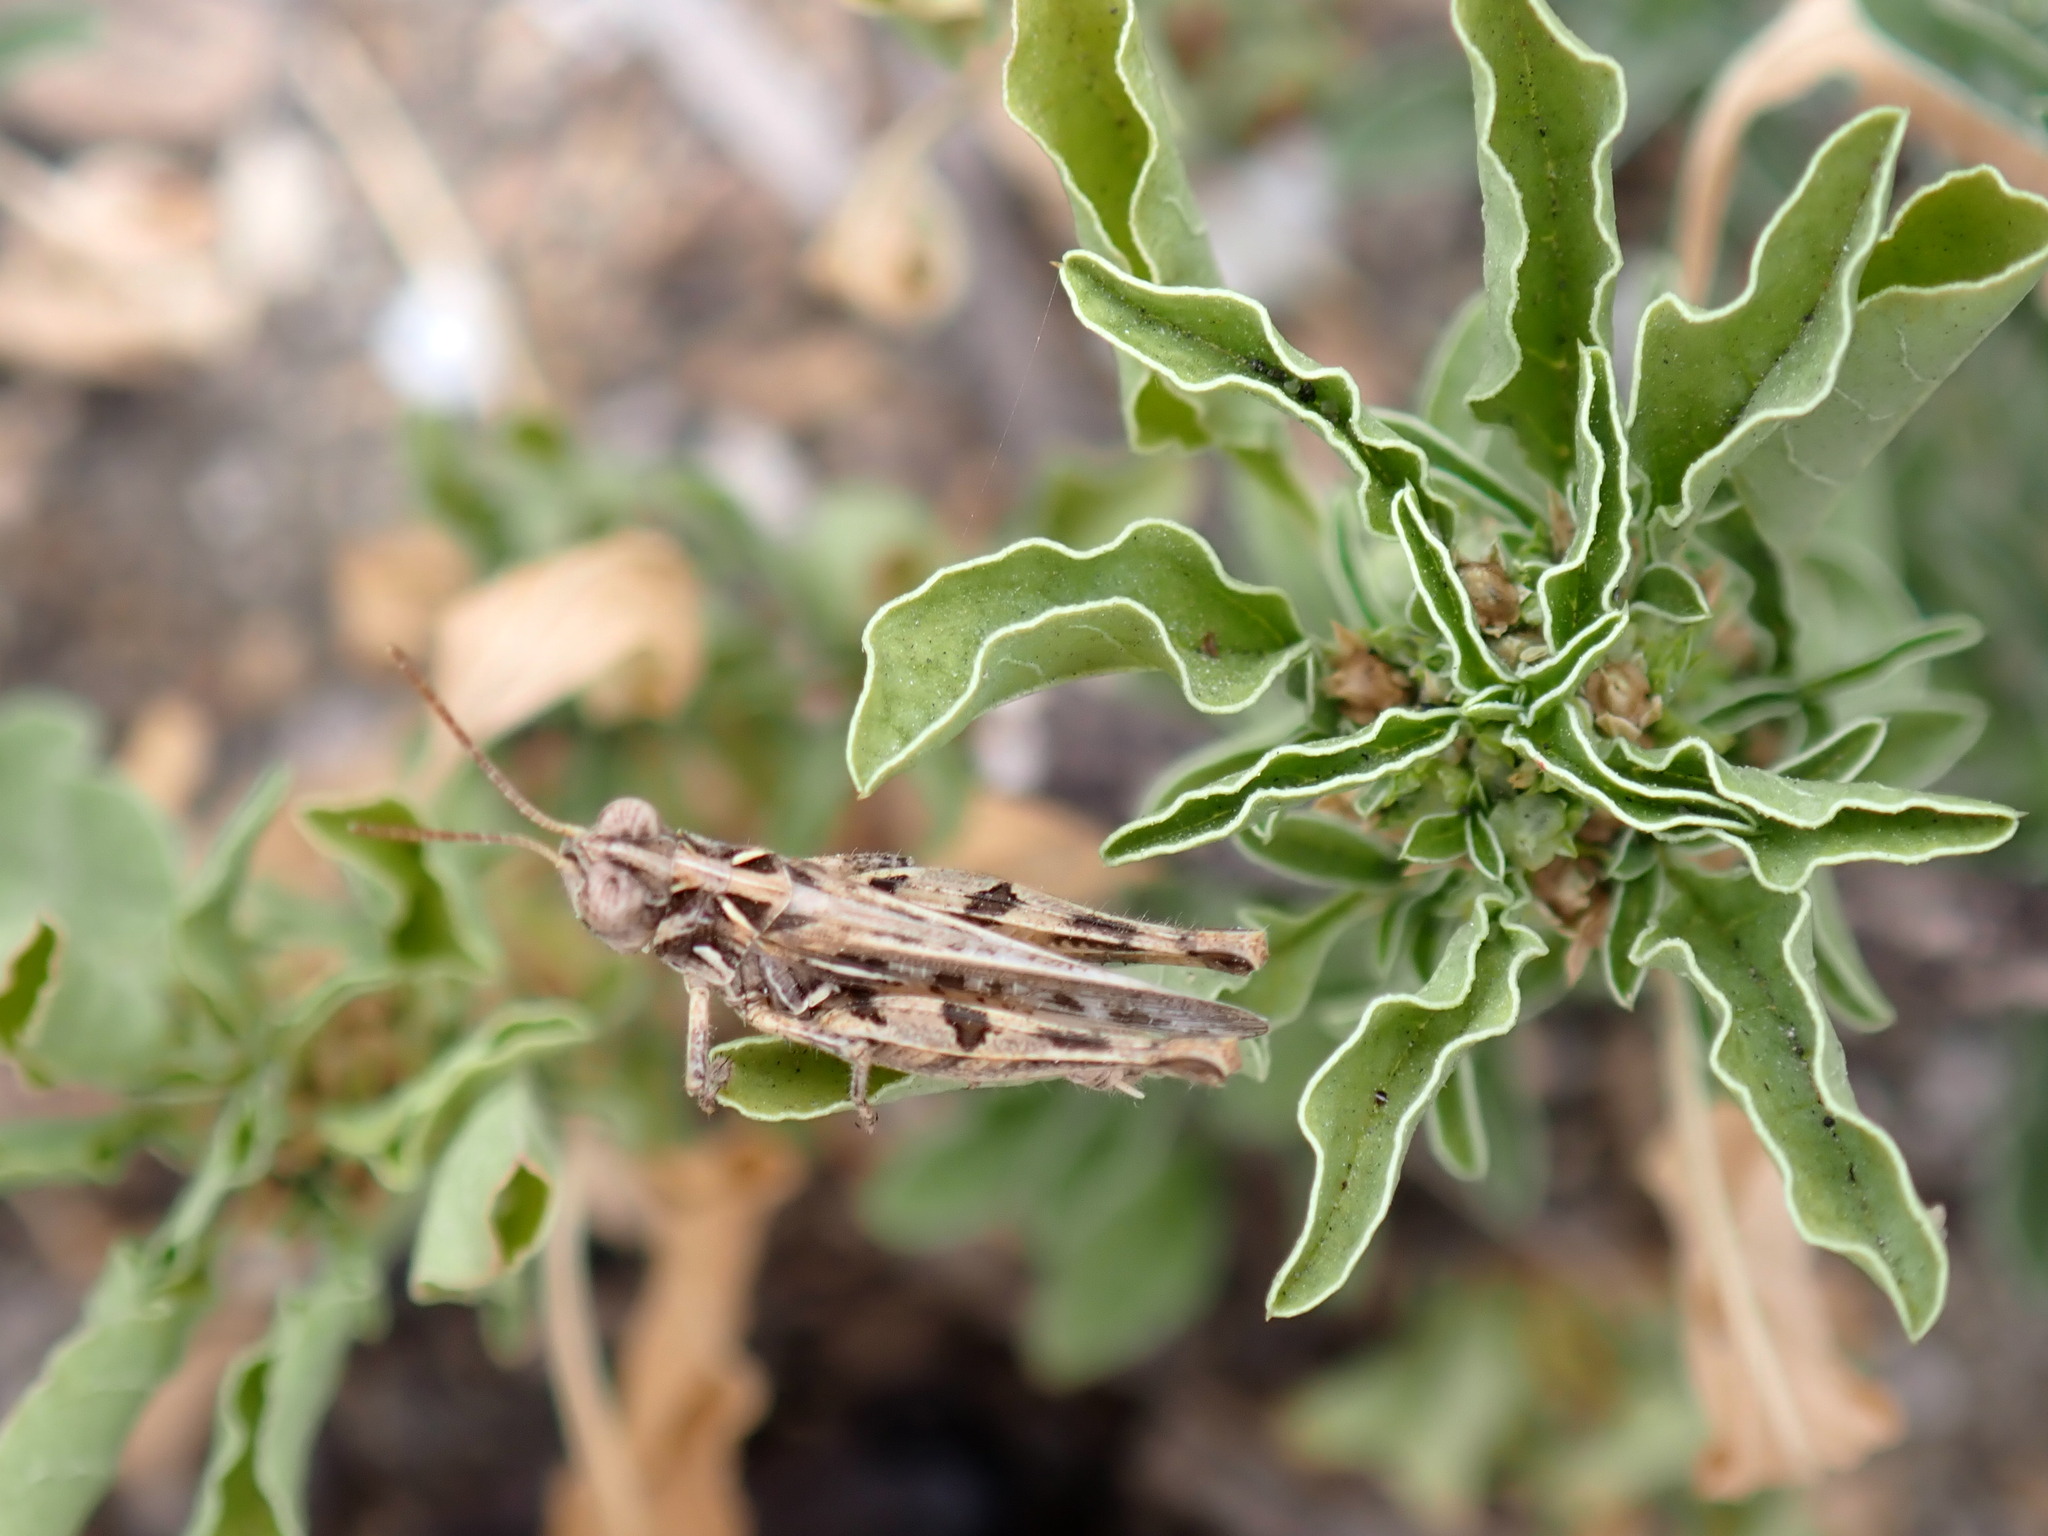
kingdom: Animalia
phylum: Arthropoda
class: Insecta
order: Orthoptera
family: Acrididae
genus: Dociostaurus
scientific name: Dociostaurus jagoi
